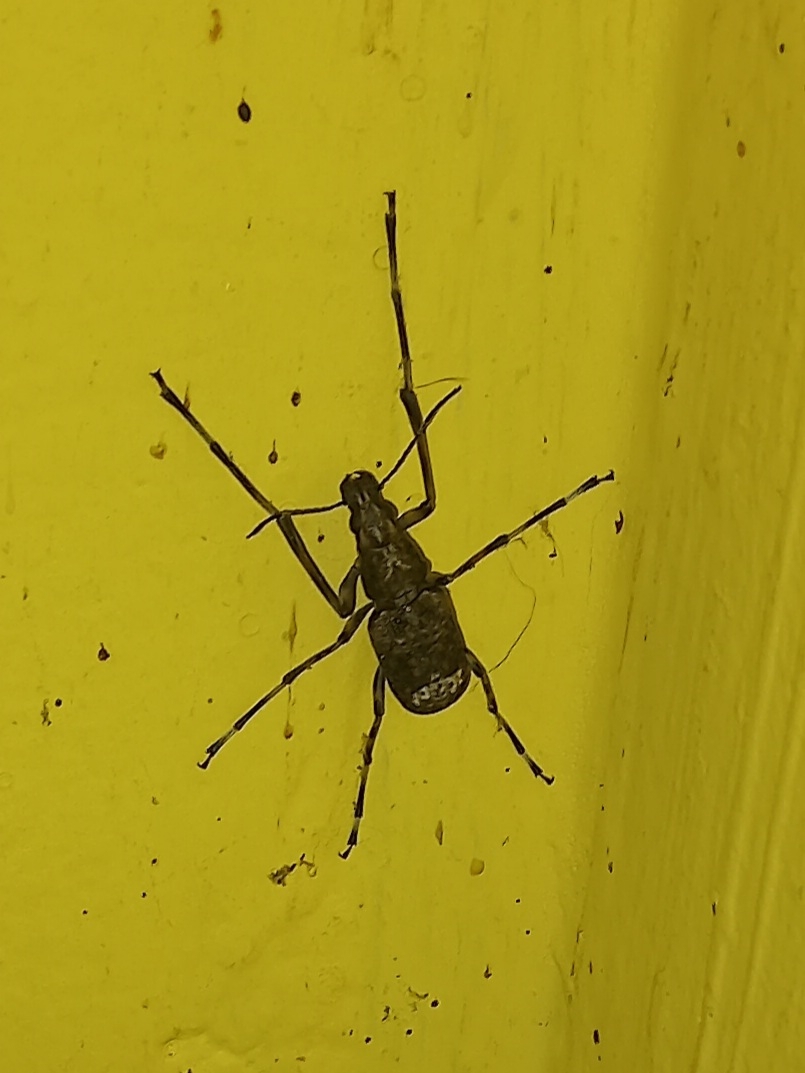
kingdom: Animalia
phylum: Arthropoda
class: Insecta
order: Coleoptera
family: Anthribidae
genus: Chirotenon
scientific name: Chirotenon longimanum
